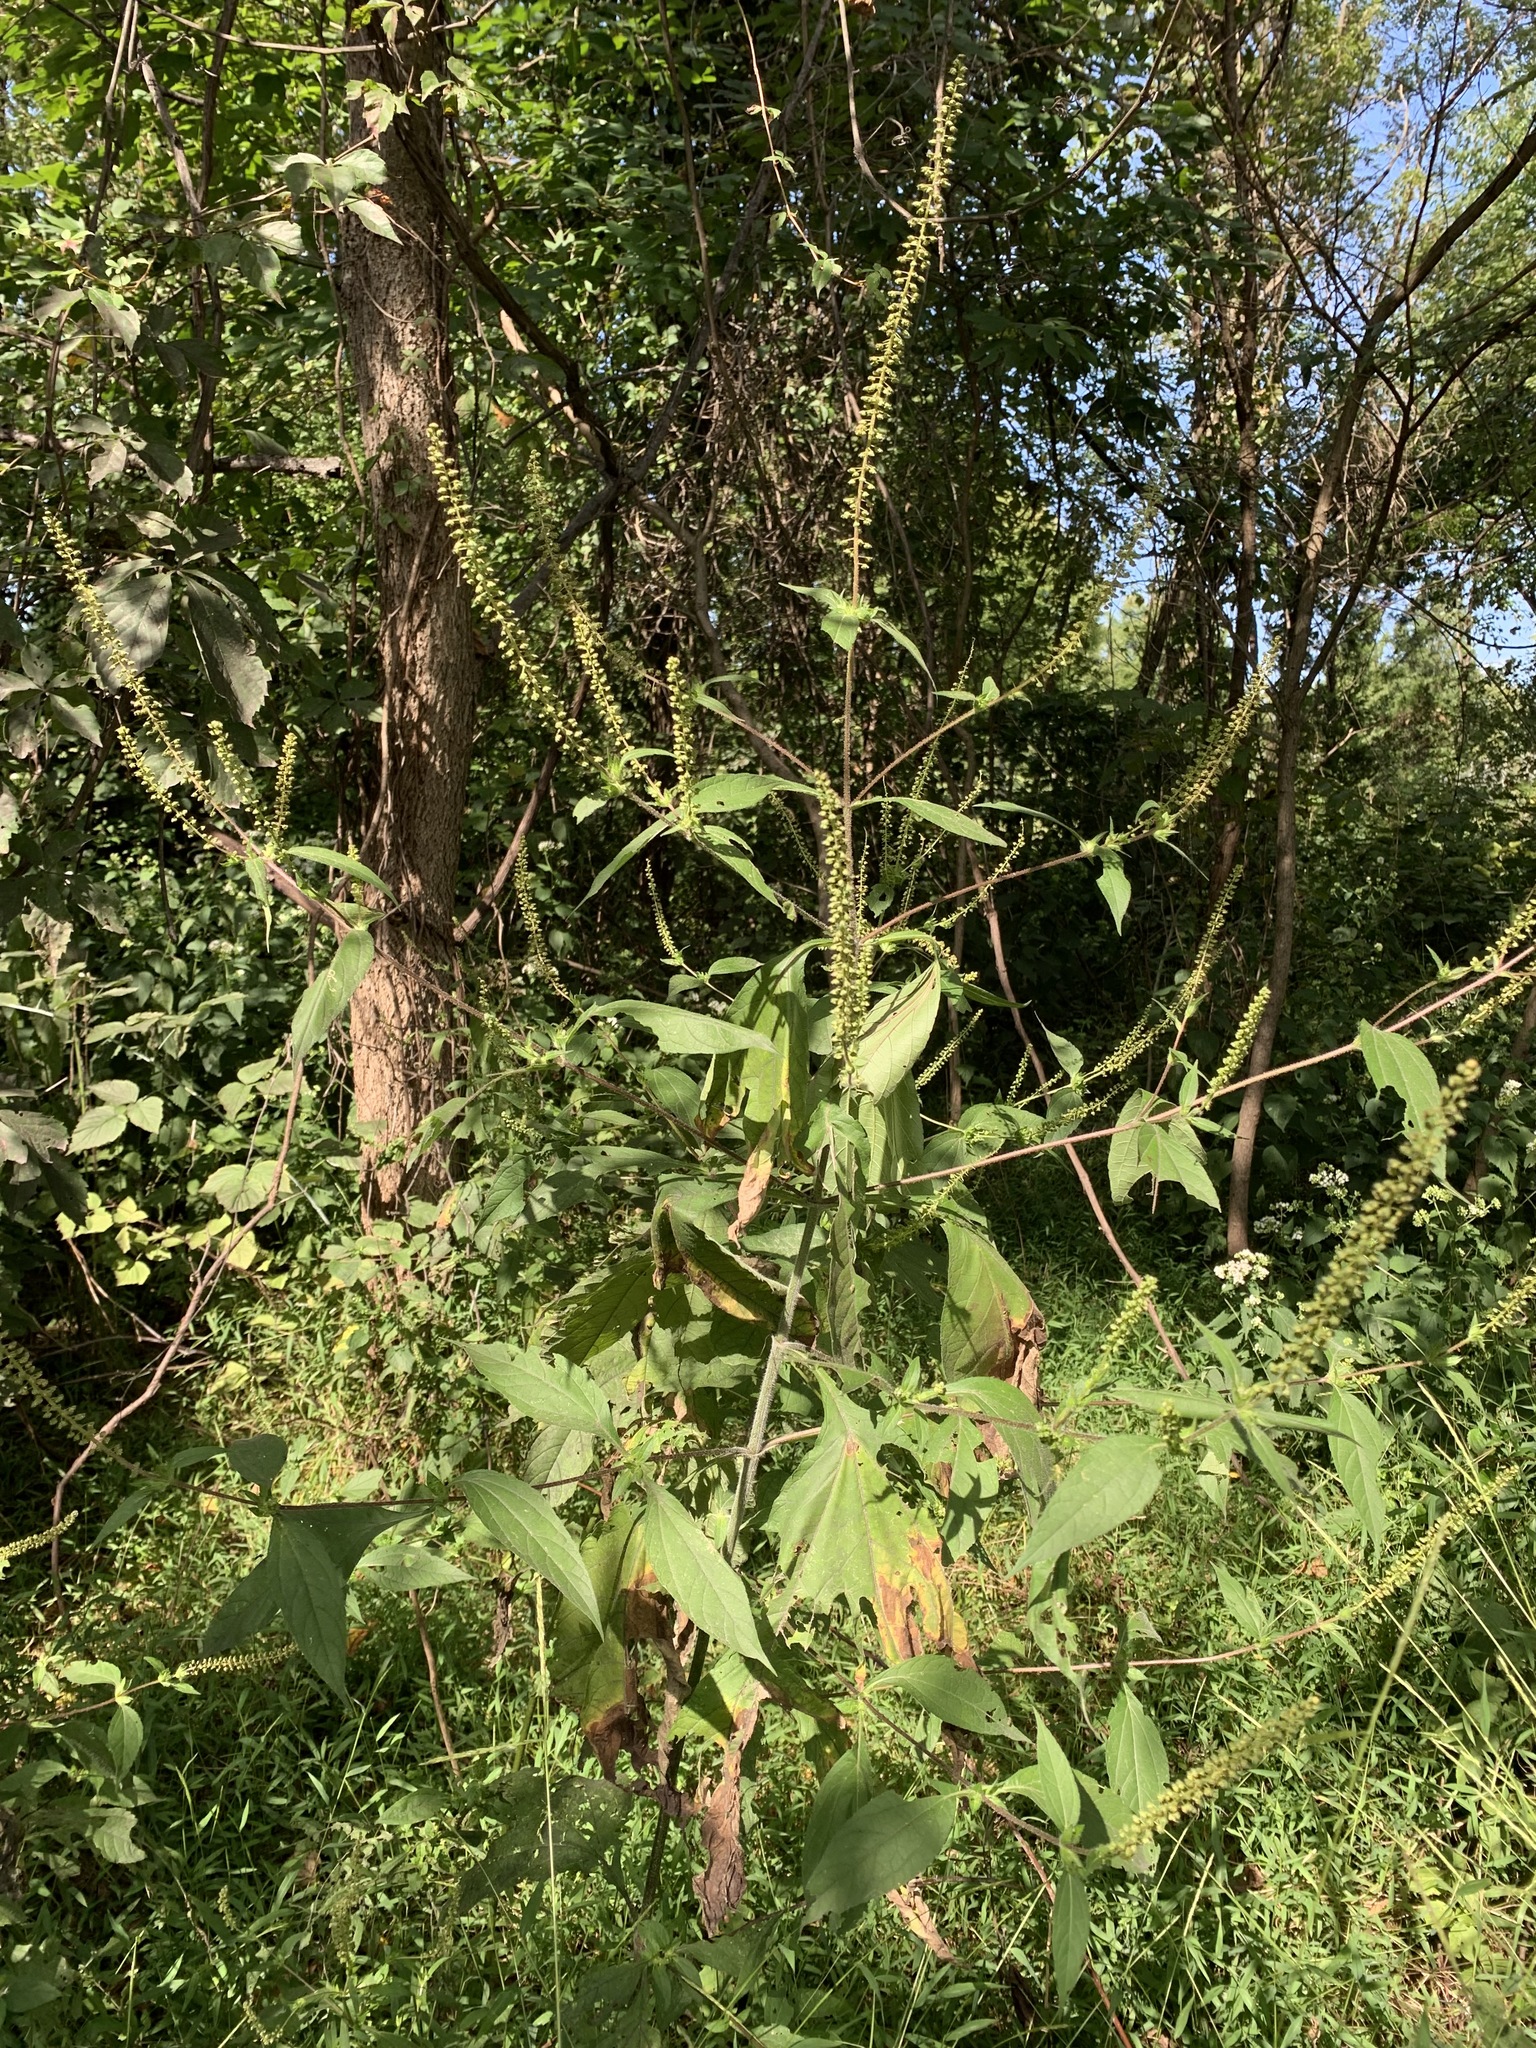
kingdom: Plantae
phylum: Tracheophyta
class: Magnoliopsida
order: Asterales
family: Asteraceae
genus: Ambrosia
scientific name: Ambrosia trifida
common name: Giant ragweed
